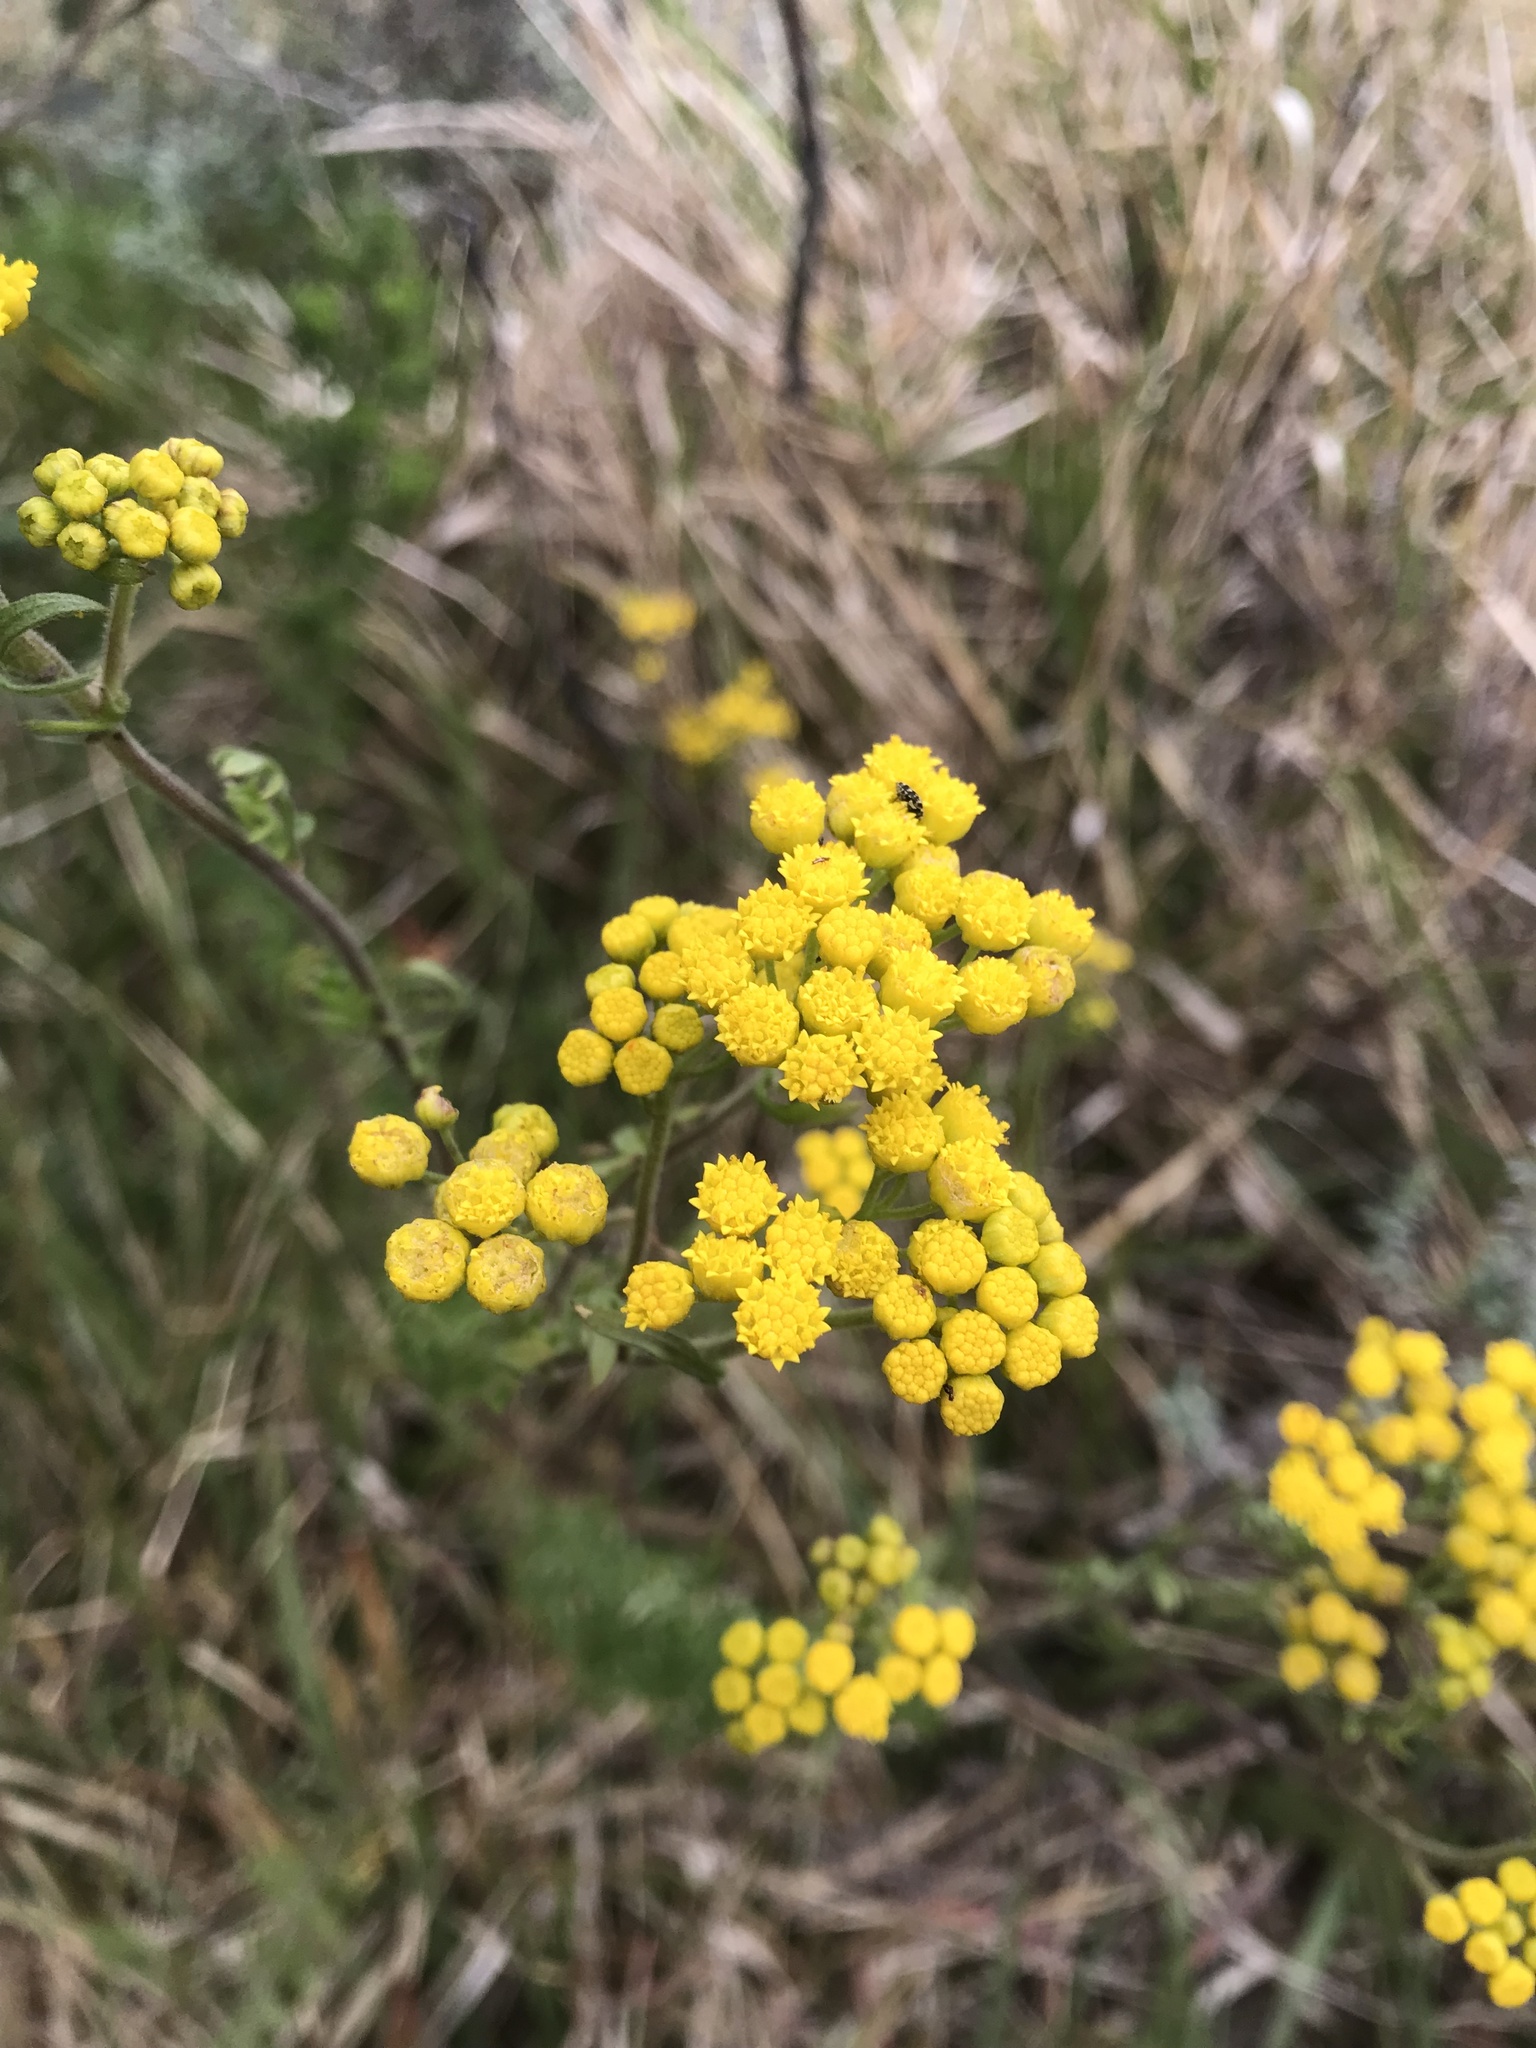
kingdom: Plantae
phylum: Tracheophyta
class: Magnoliopsida
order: Asterales
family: Asteraceae
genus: Hippia
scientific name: Hippia frutescens
